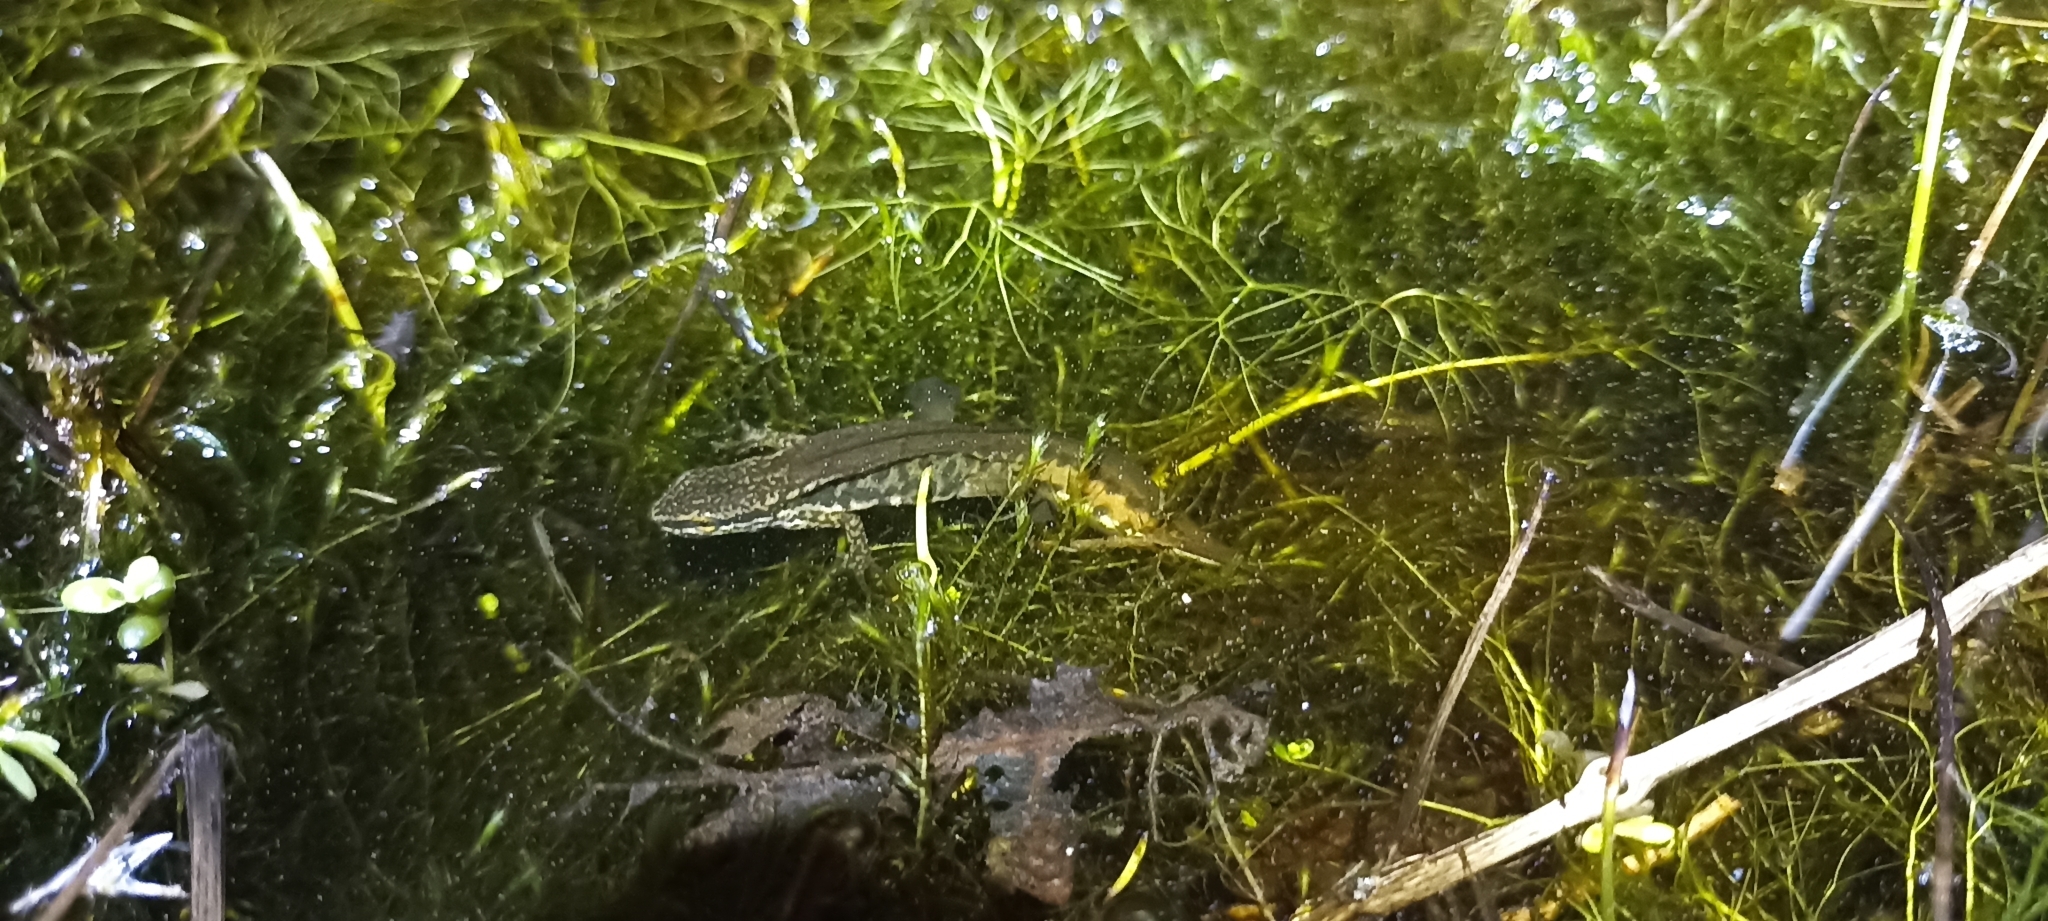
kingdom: Animalia
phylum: Chordata
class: Amphibia
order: Caudata
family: Salamandridae
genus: Lissotriton
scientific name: Lissotriton helveticus
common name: Palmate newt
